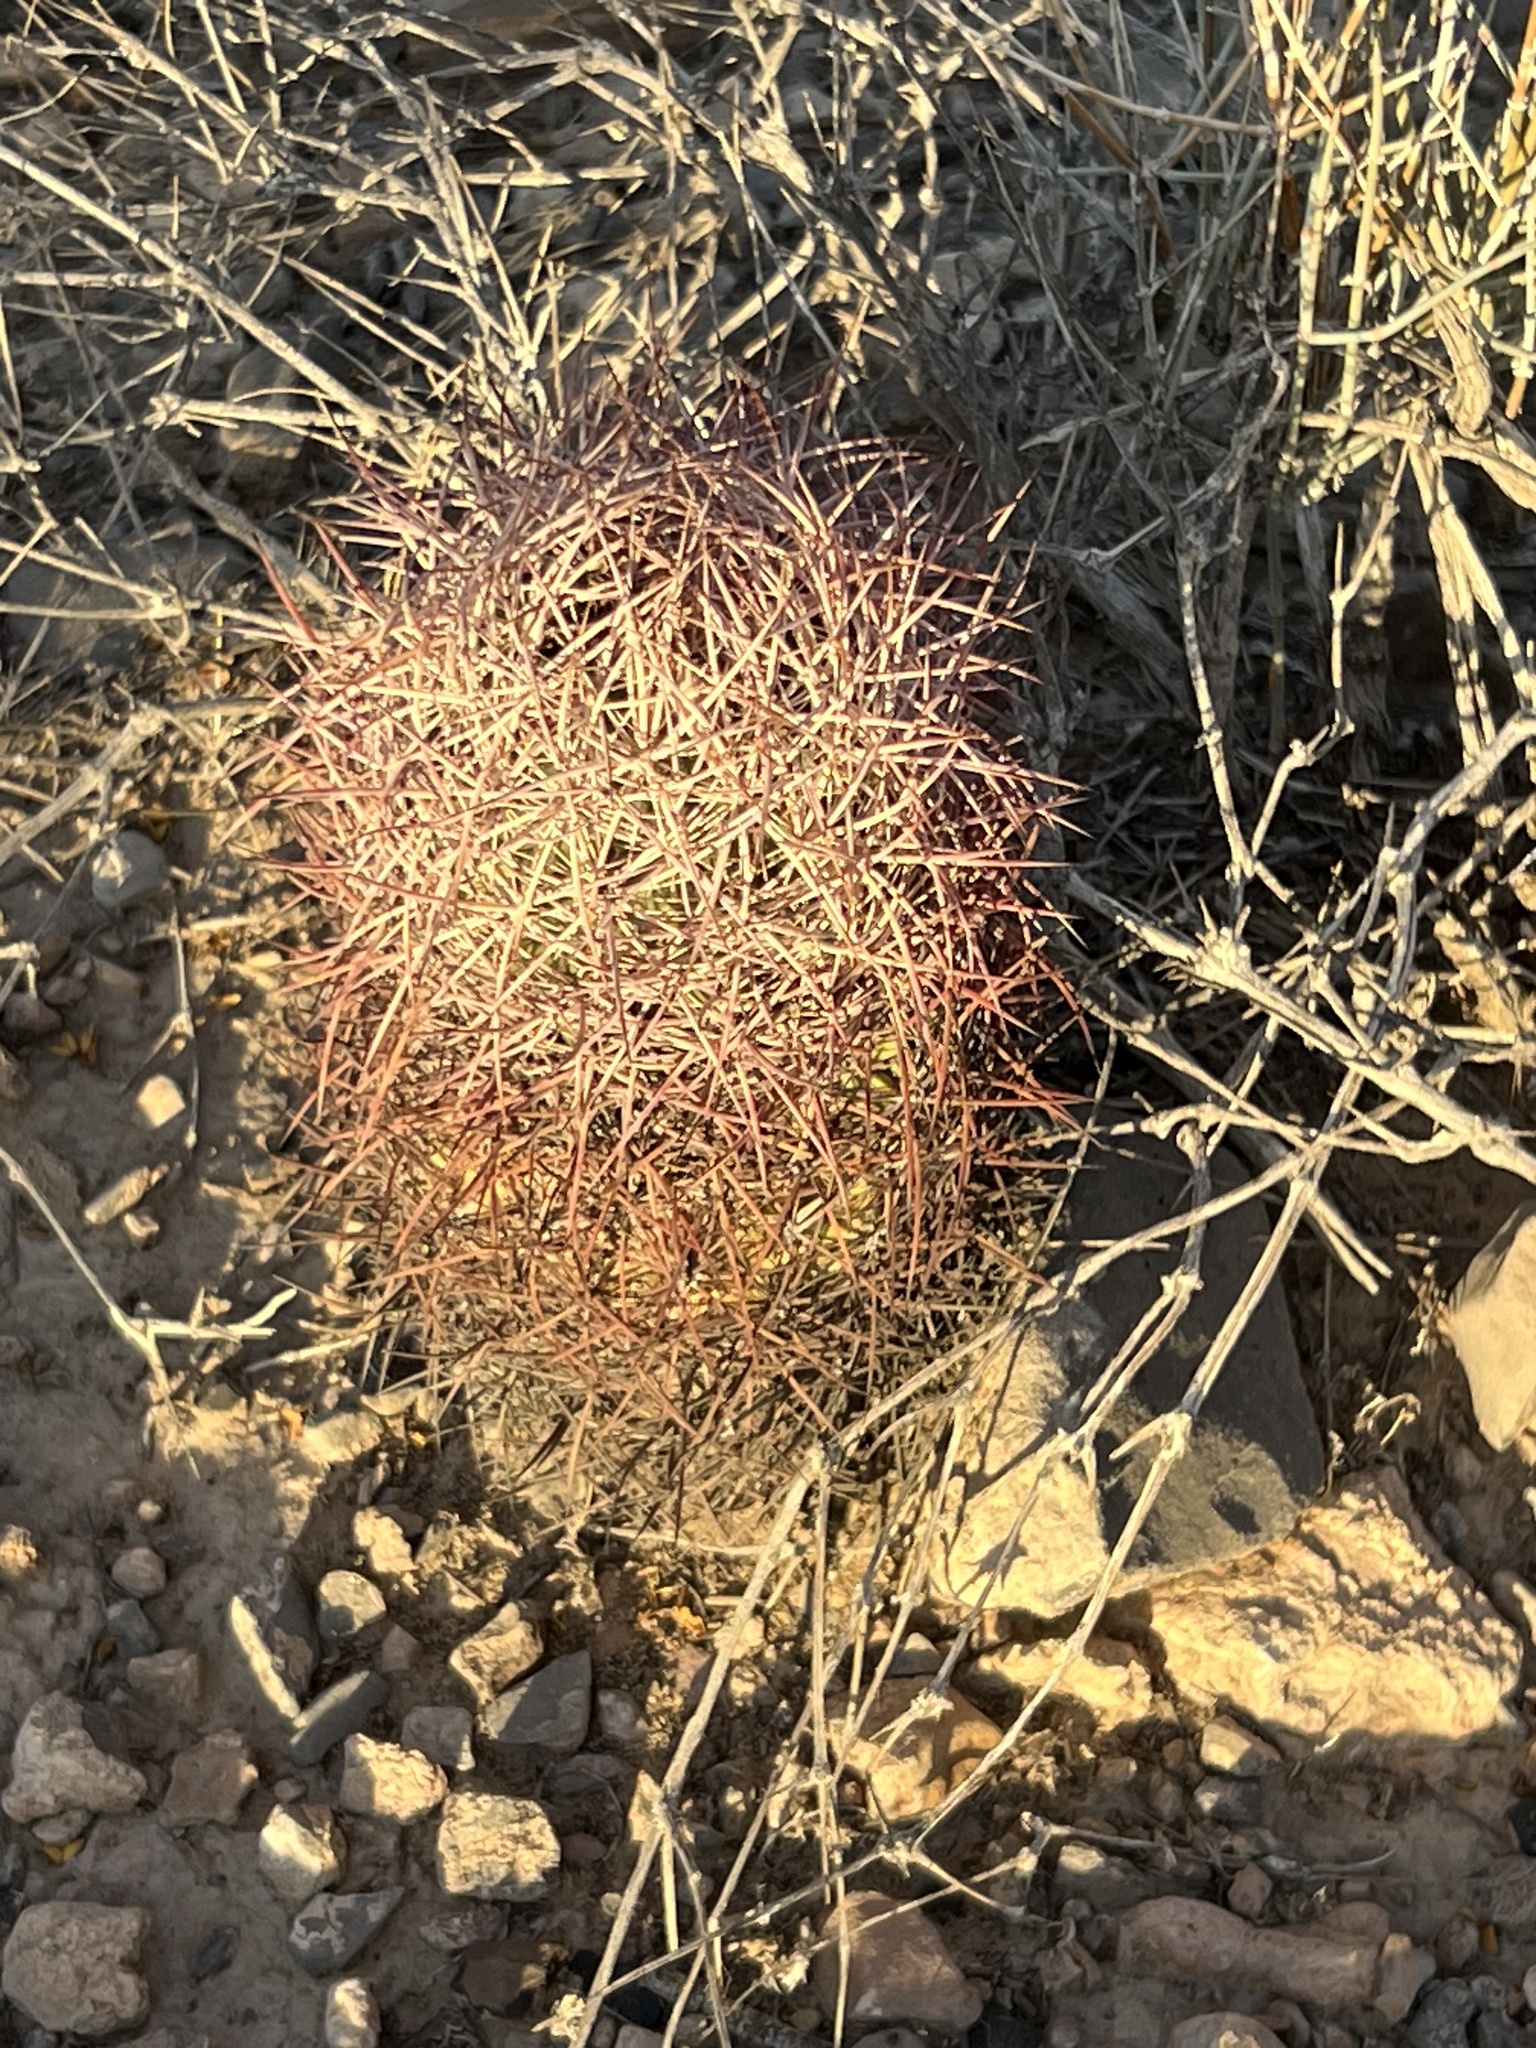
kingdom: Plantae
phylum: Tracheophyta
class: Magnoliopsida
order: Caryophyllales
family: Cactaceae
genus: Sclerocactus
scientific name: Sclerocactus johnsonii
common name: Eight-spine fishhook cactus
